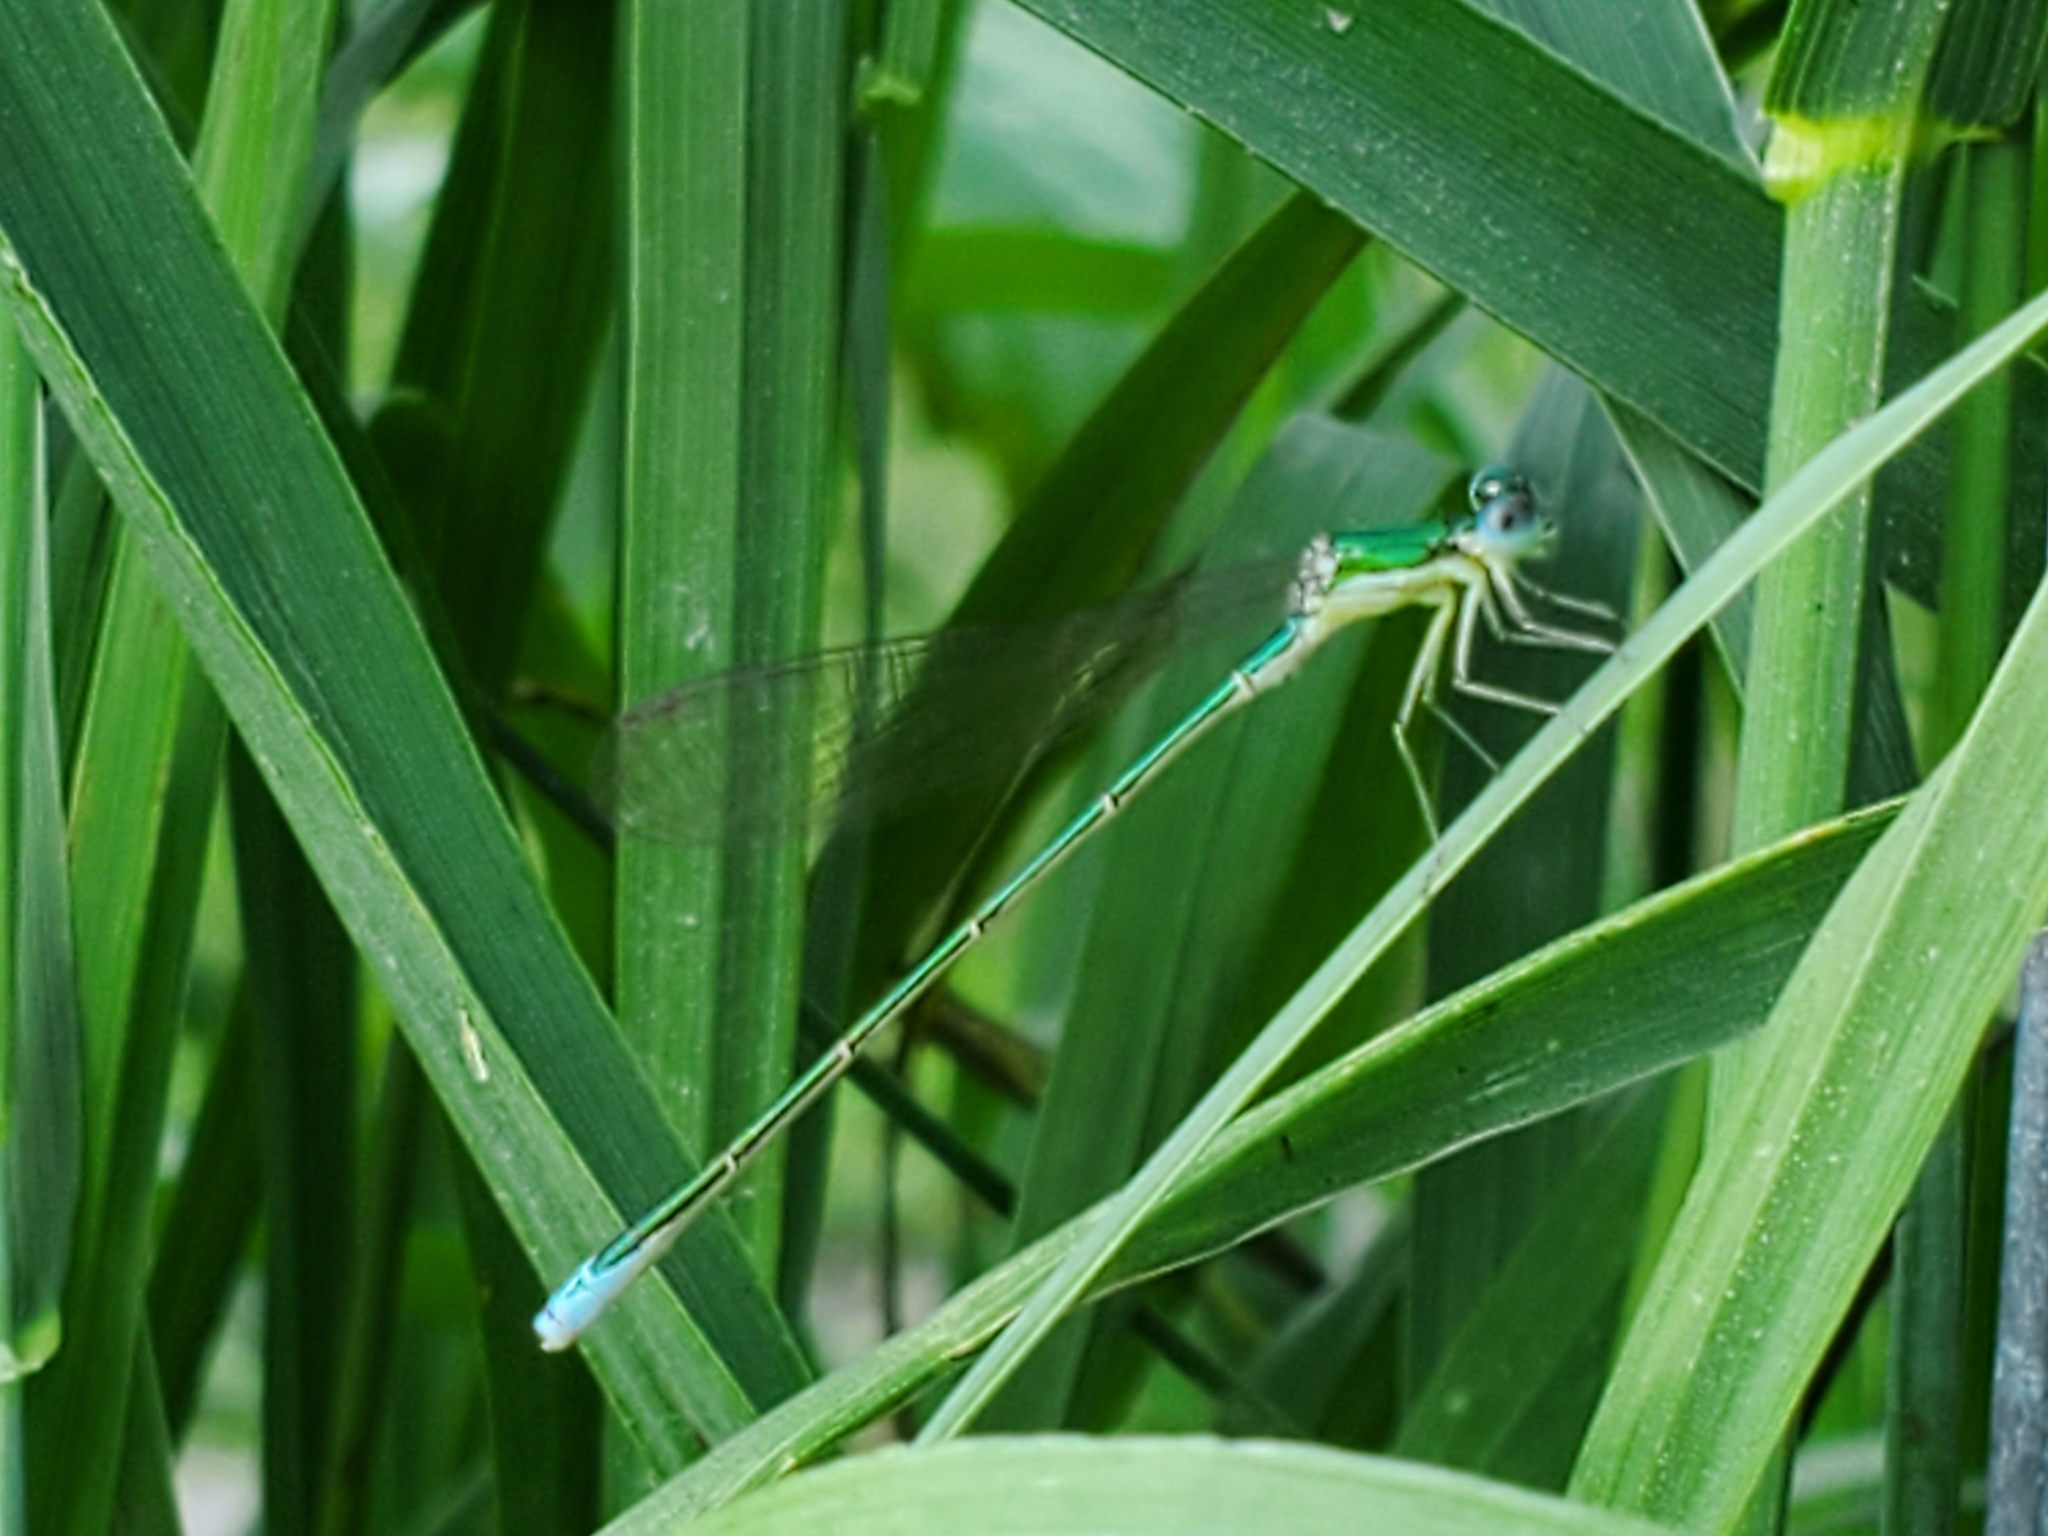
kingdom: Animalia
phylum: Arthropoda
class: Insecta
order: Odonata
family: Coenagrionidae
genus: Nehalennia
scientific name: Nehalennia irene
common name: Sedge sprite
